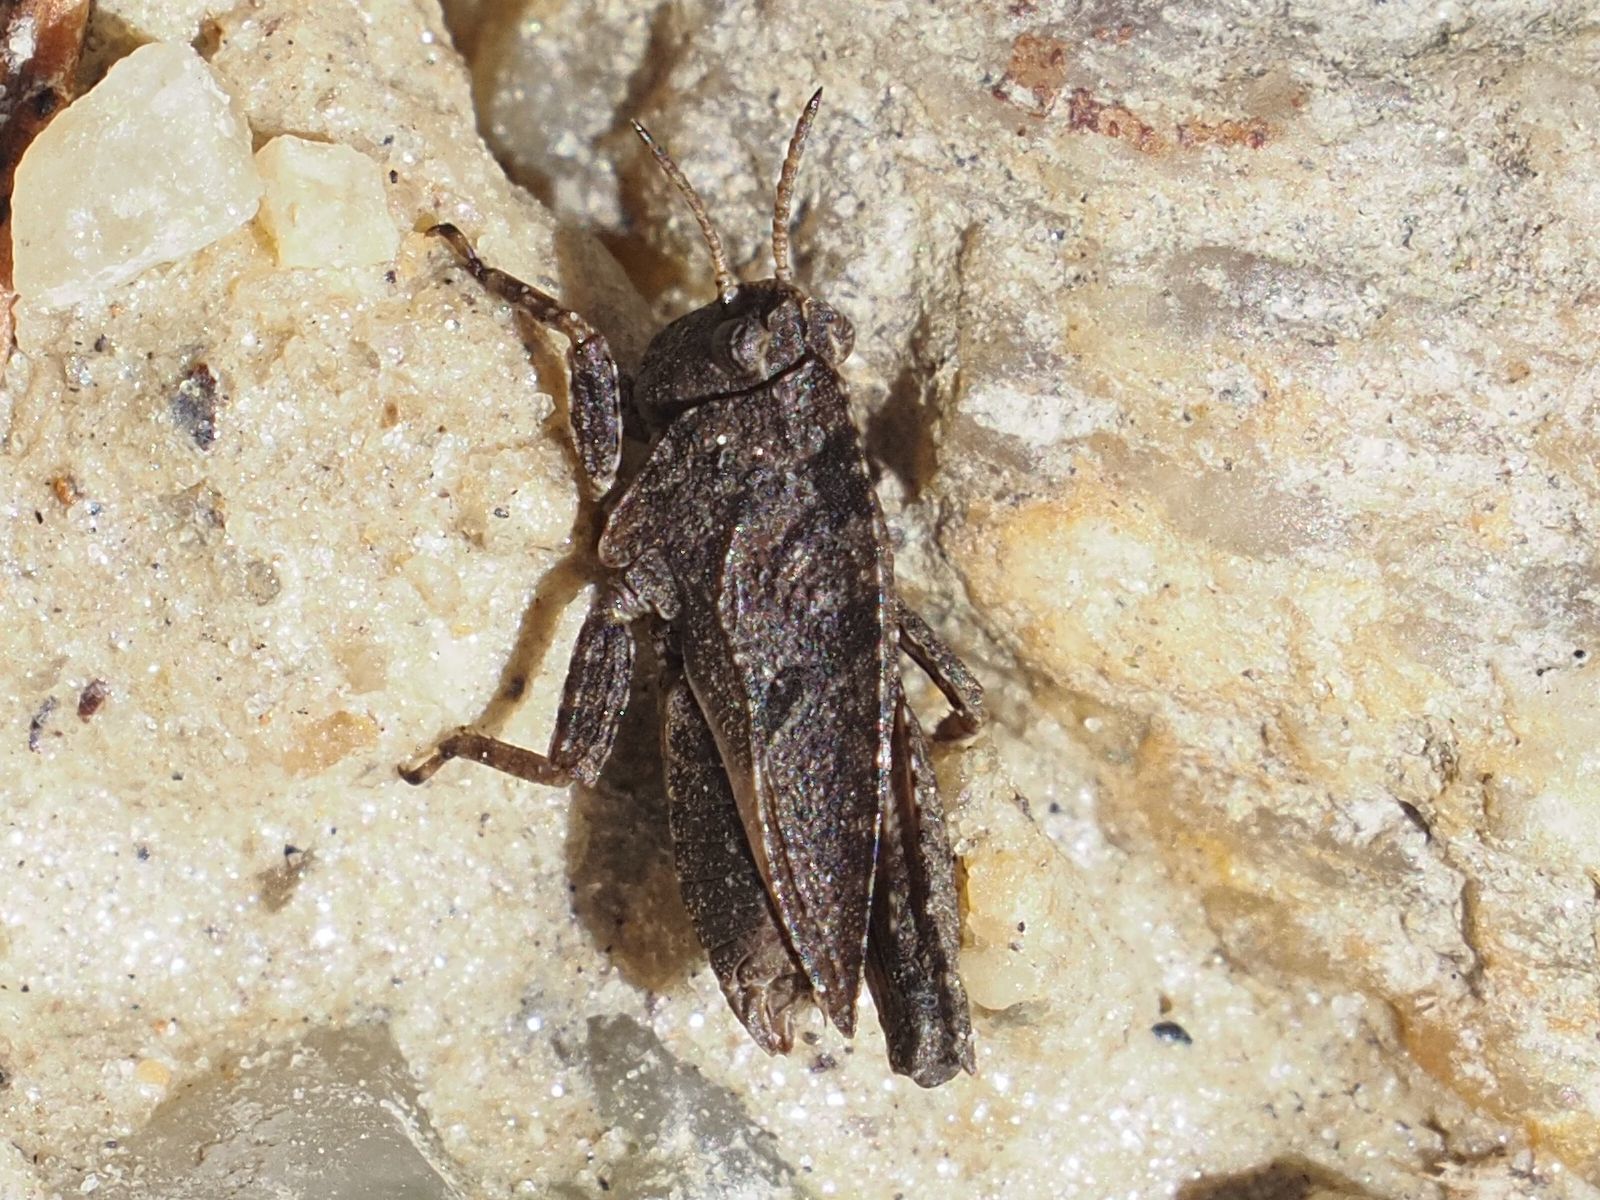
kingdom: Animalia
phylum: Arthropoda
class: Insecta
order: Orthoptera
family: Tetrigidae
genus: Tetrix
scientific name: Tetrix bipunctata
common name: Two-spotted groundhopper
